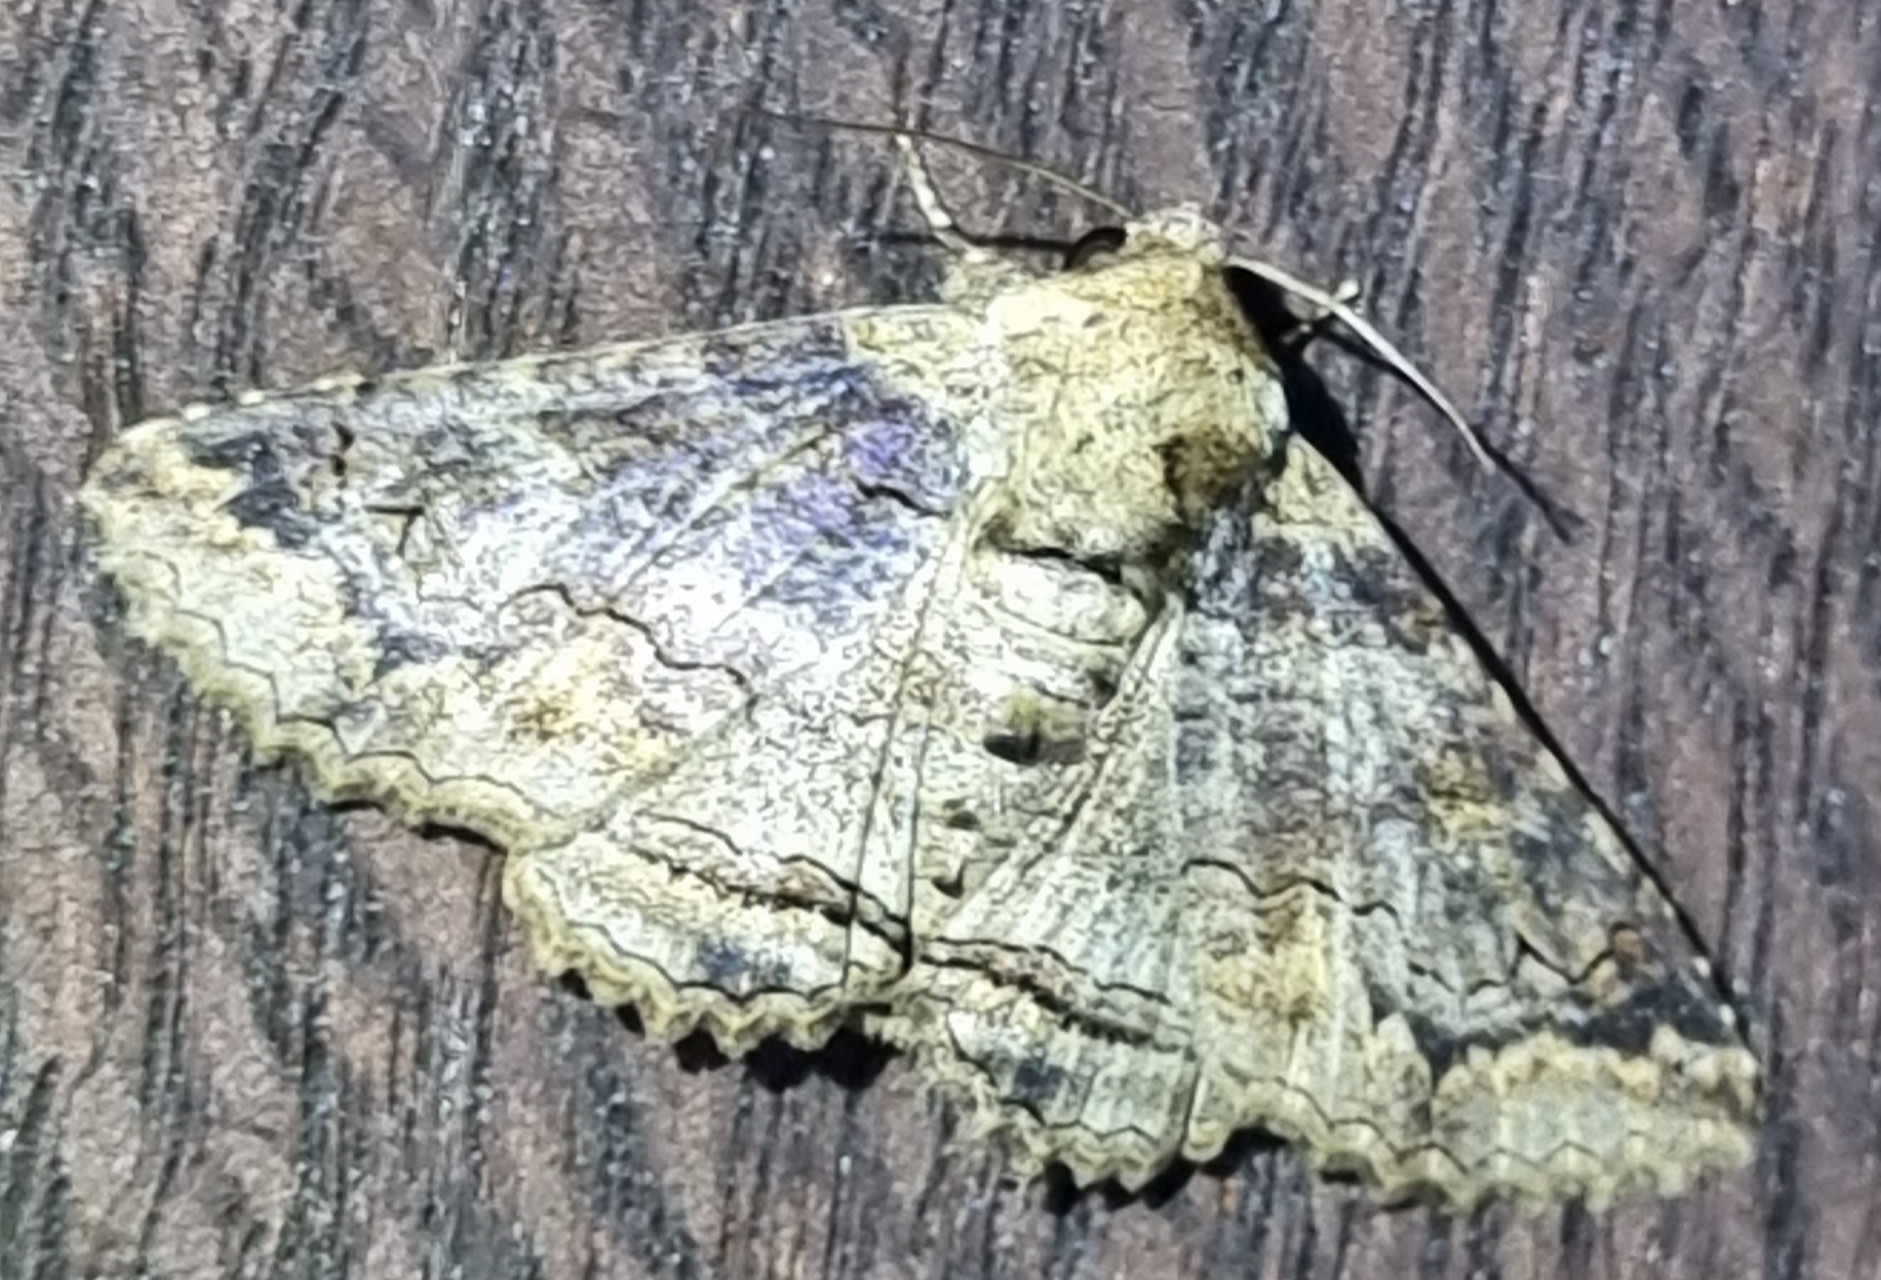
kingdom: Animalia
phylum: Arthropoda
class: Insecta
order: Lepidoptera
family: Erebidae
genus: Pericyma
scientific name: Pericyma cruegeri
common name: Poinciana looper
